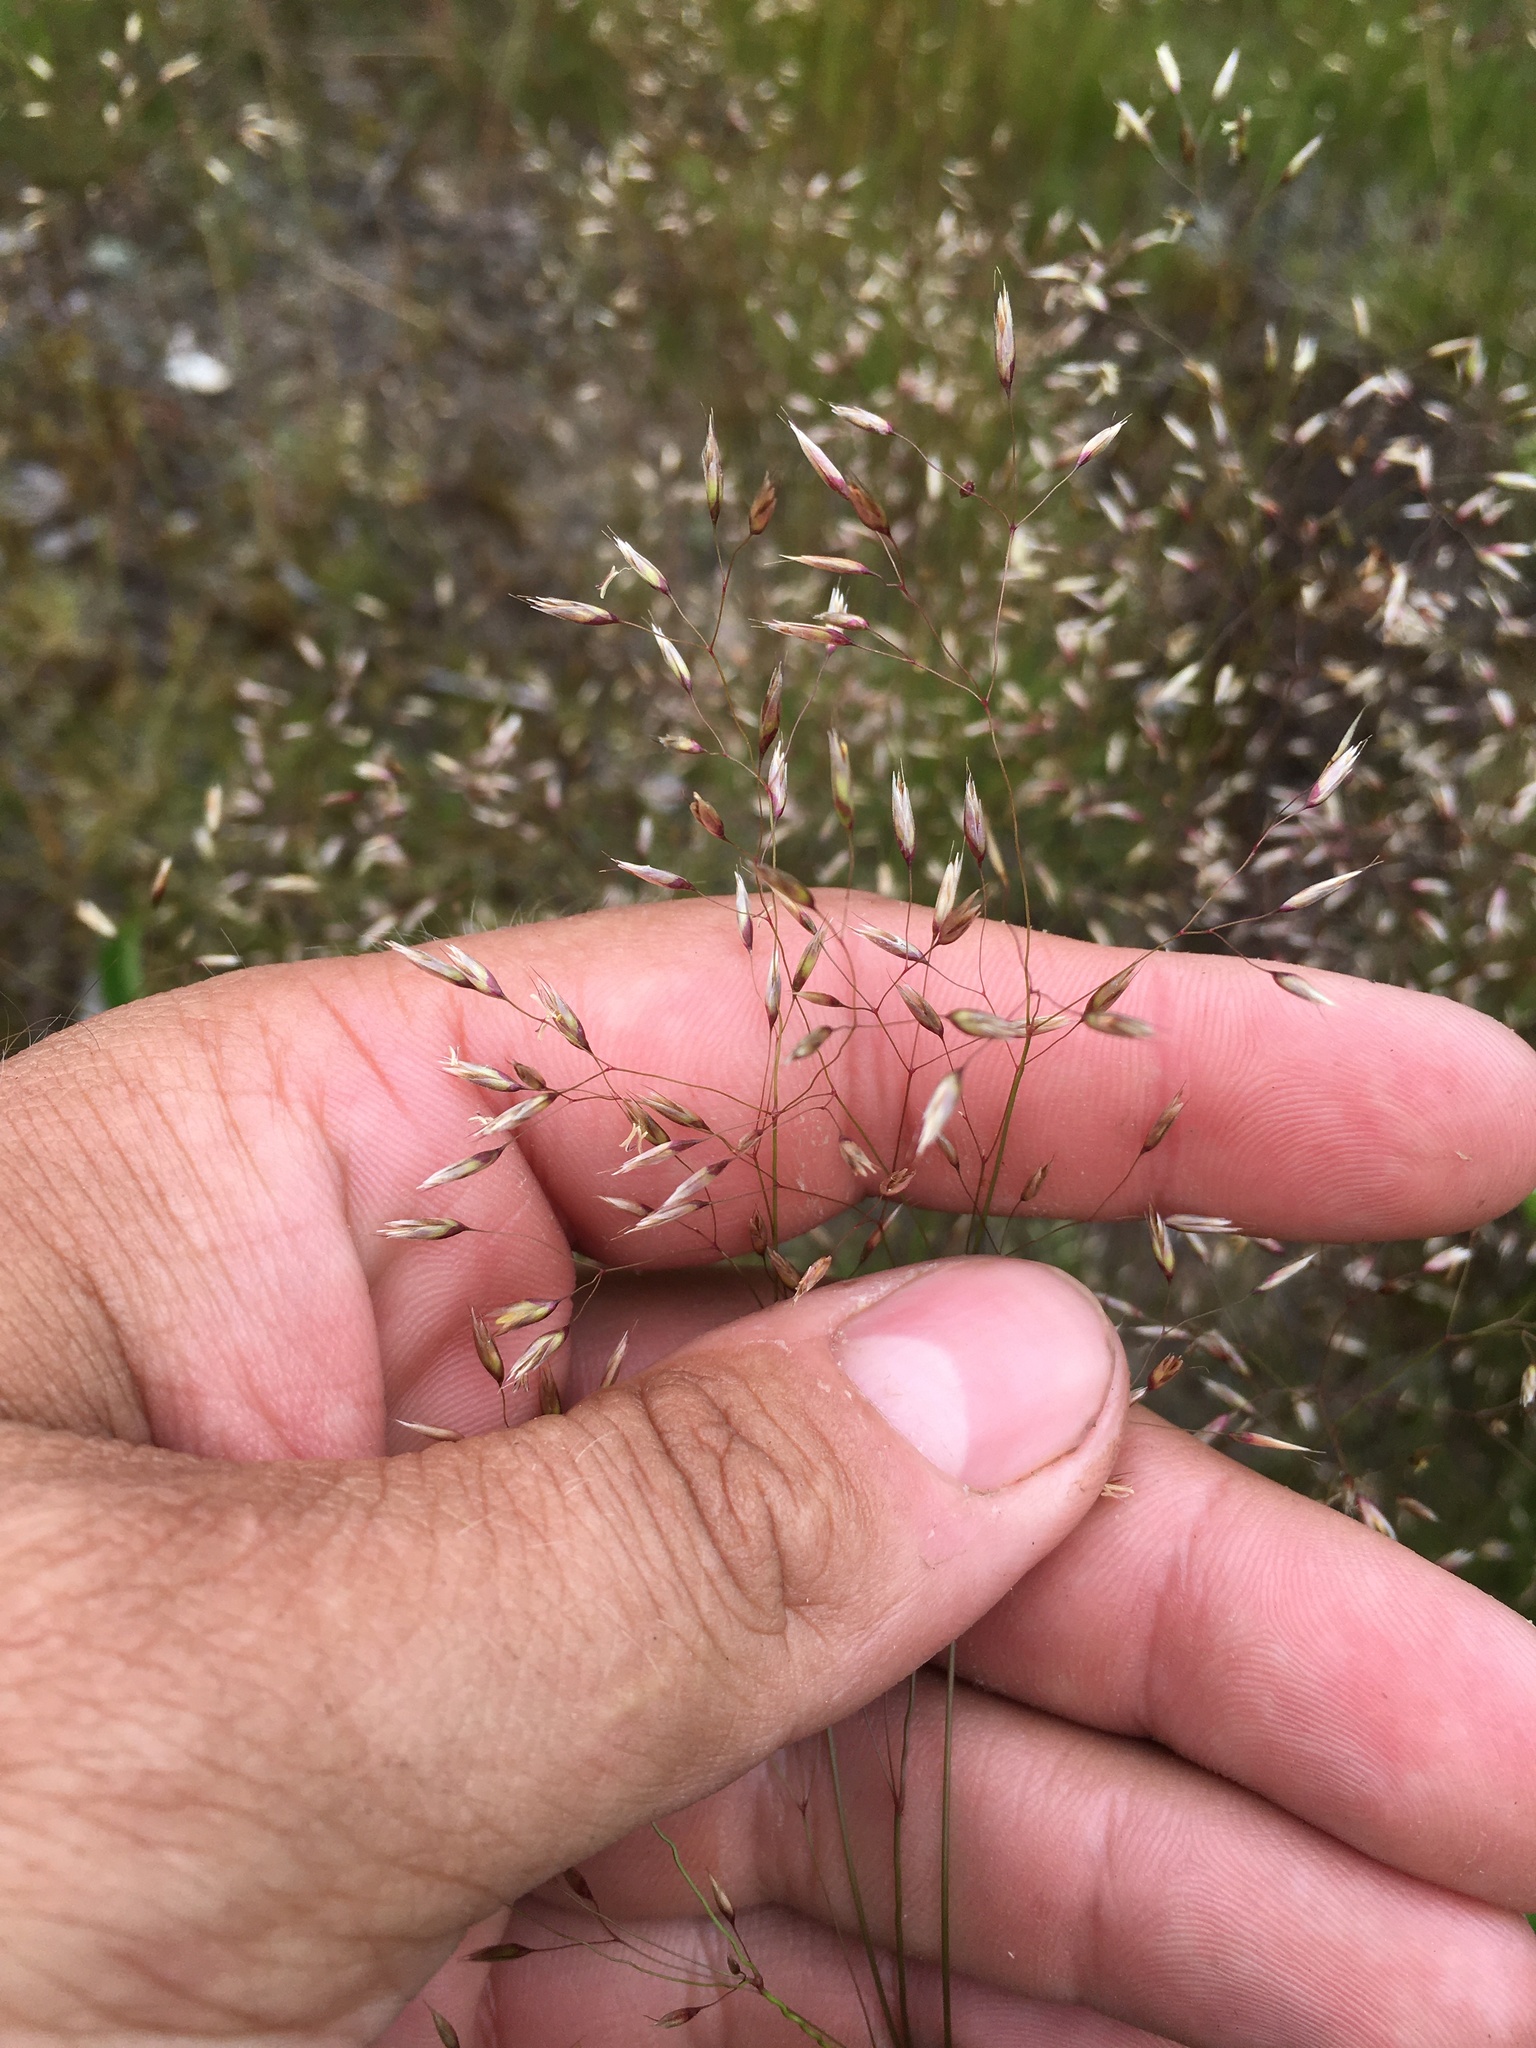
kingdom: Plantae
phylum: Tracheophyta
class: Liliopsida
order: Poales
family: Poaceae
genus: Avenella
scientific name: Avenella flexuosa
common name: Wavy hairgrass
